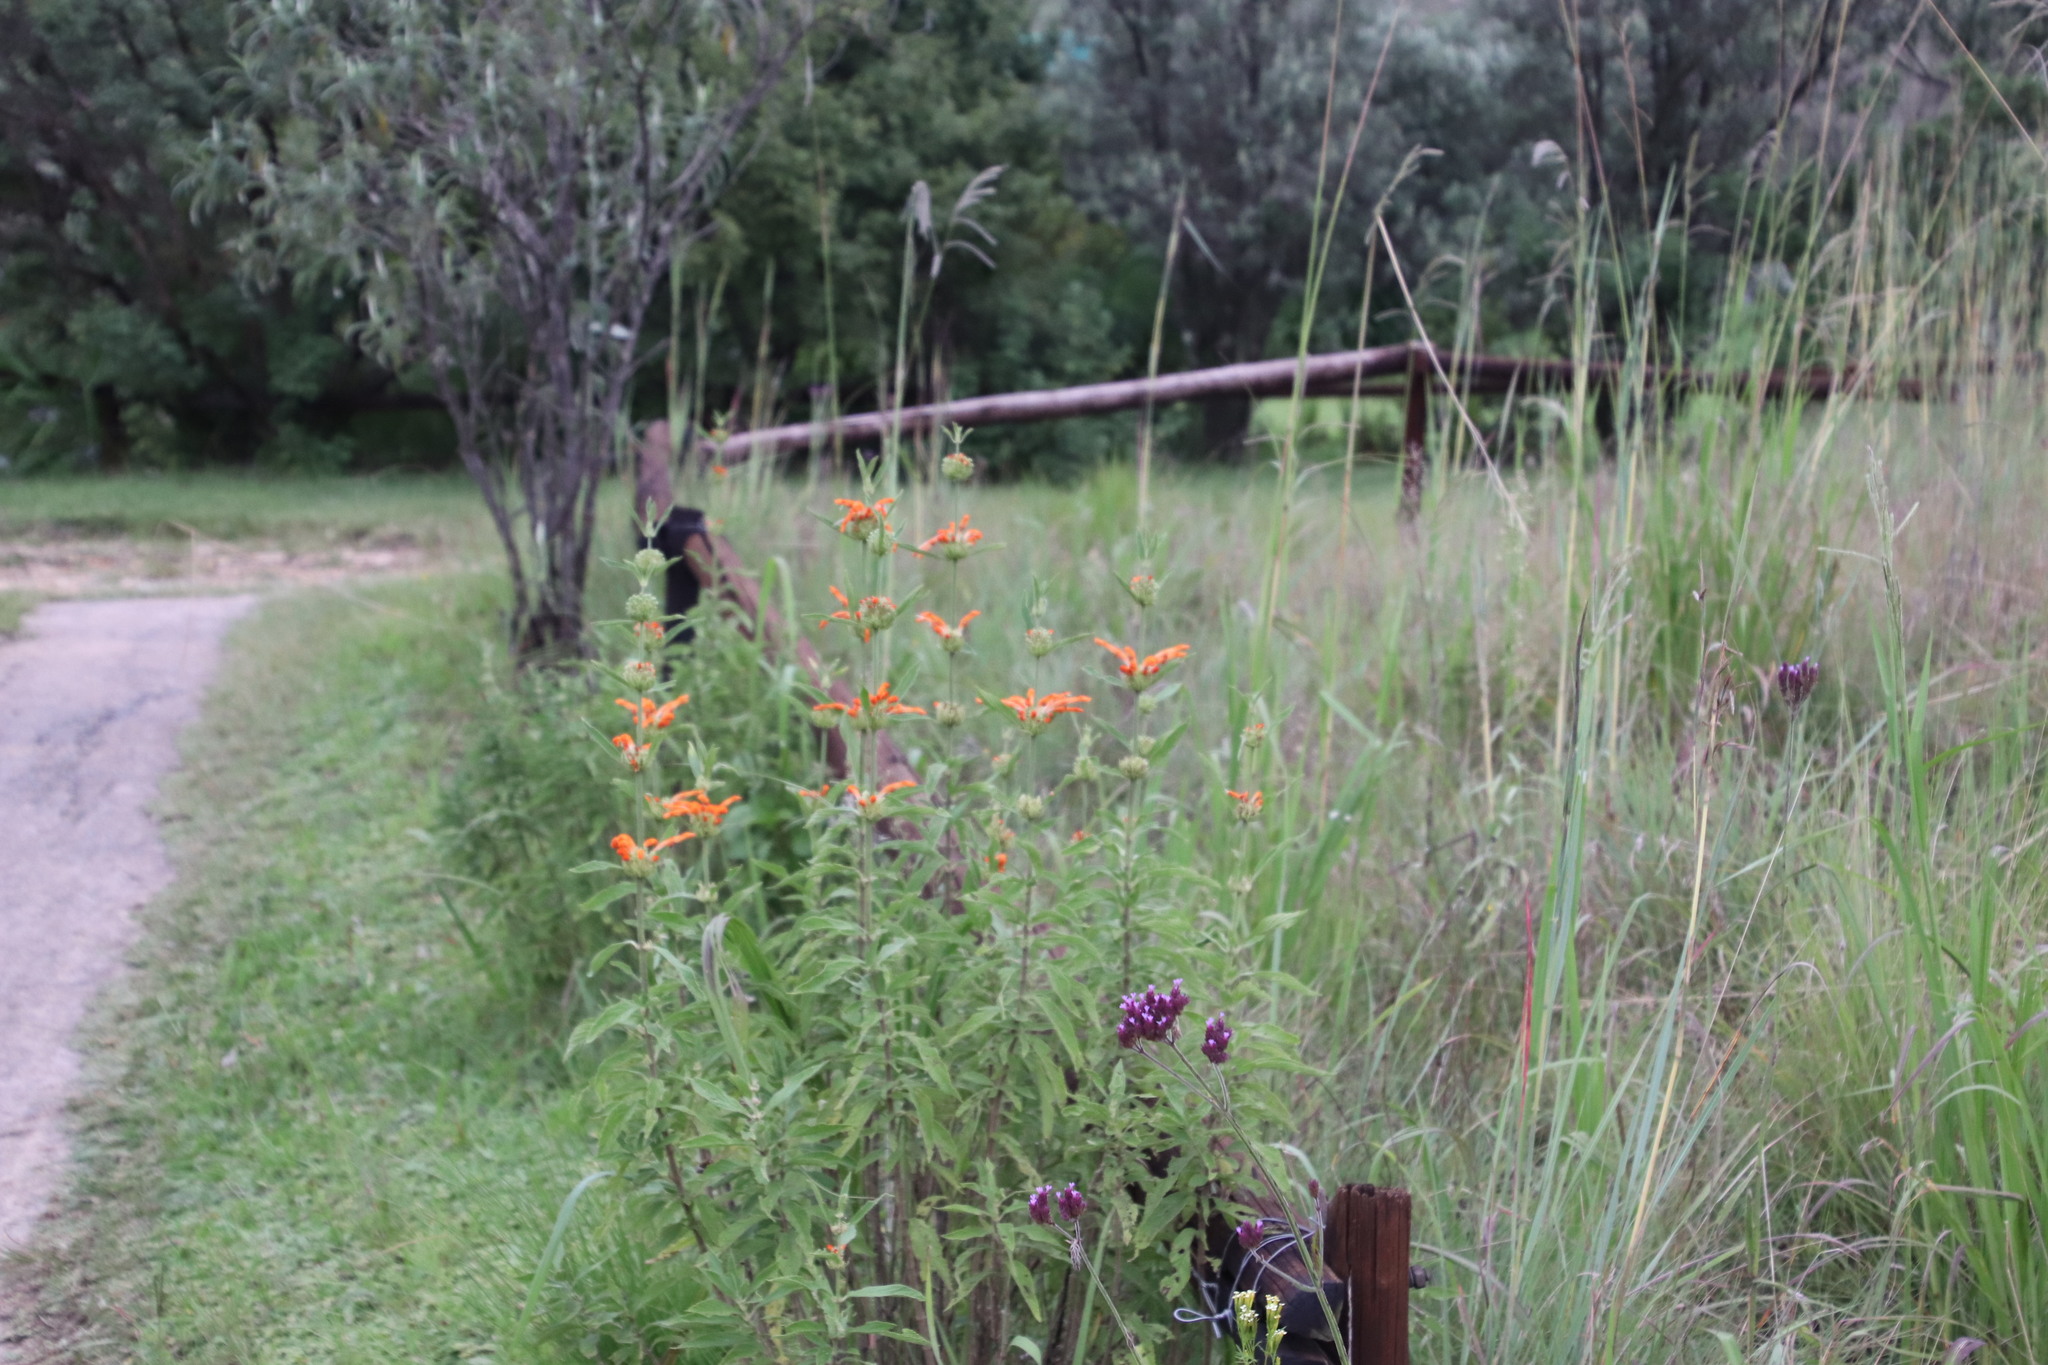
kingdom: Plantae
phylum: Tracheophyta
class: Magnoliopsida
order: Lamiales
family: Lamiaceae
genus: Leonotis
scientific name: Leonotis leonurus
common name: Lion's ear
